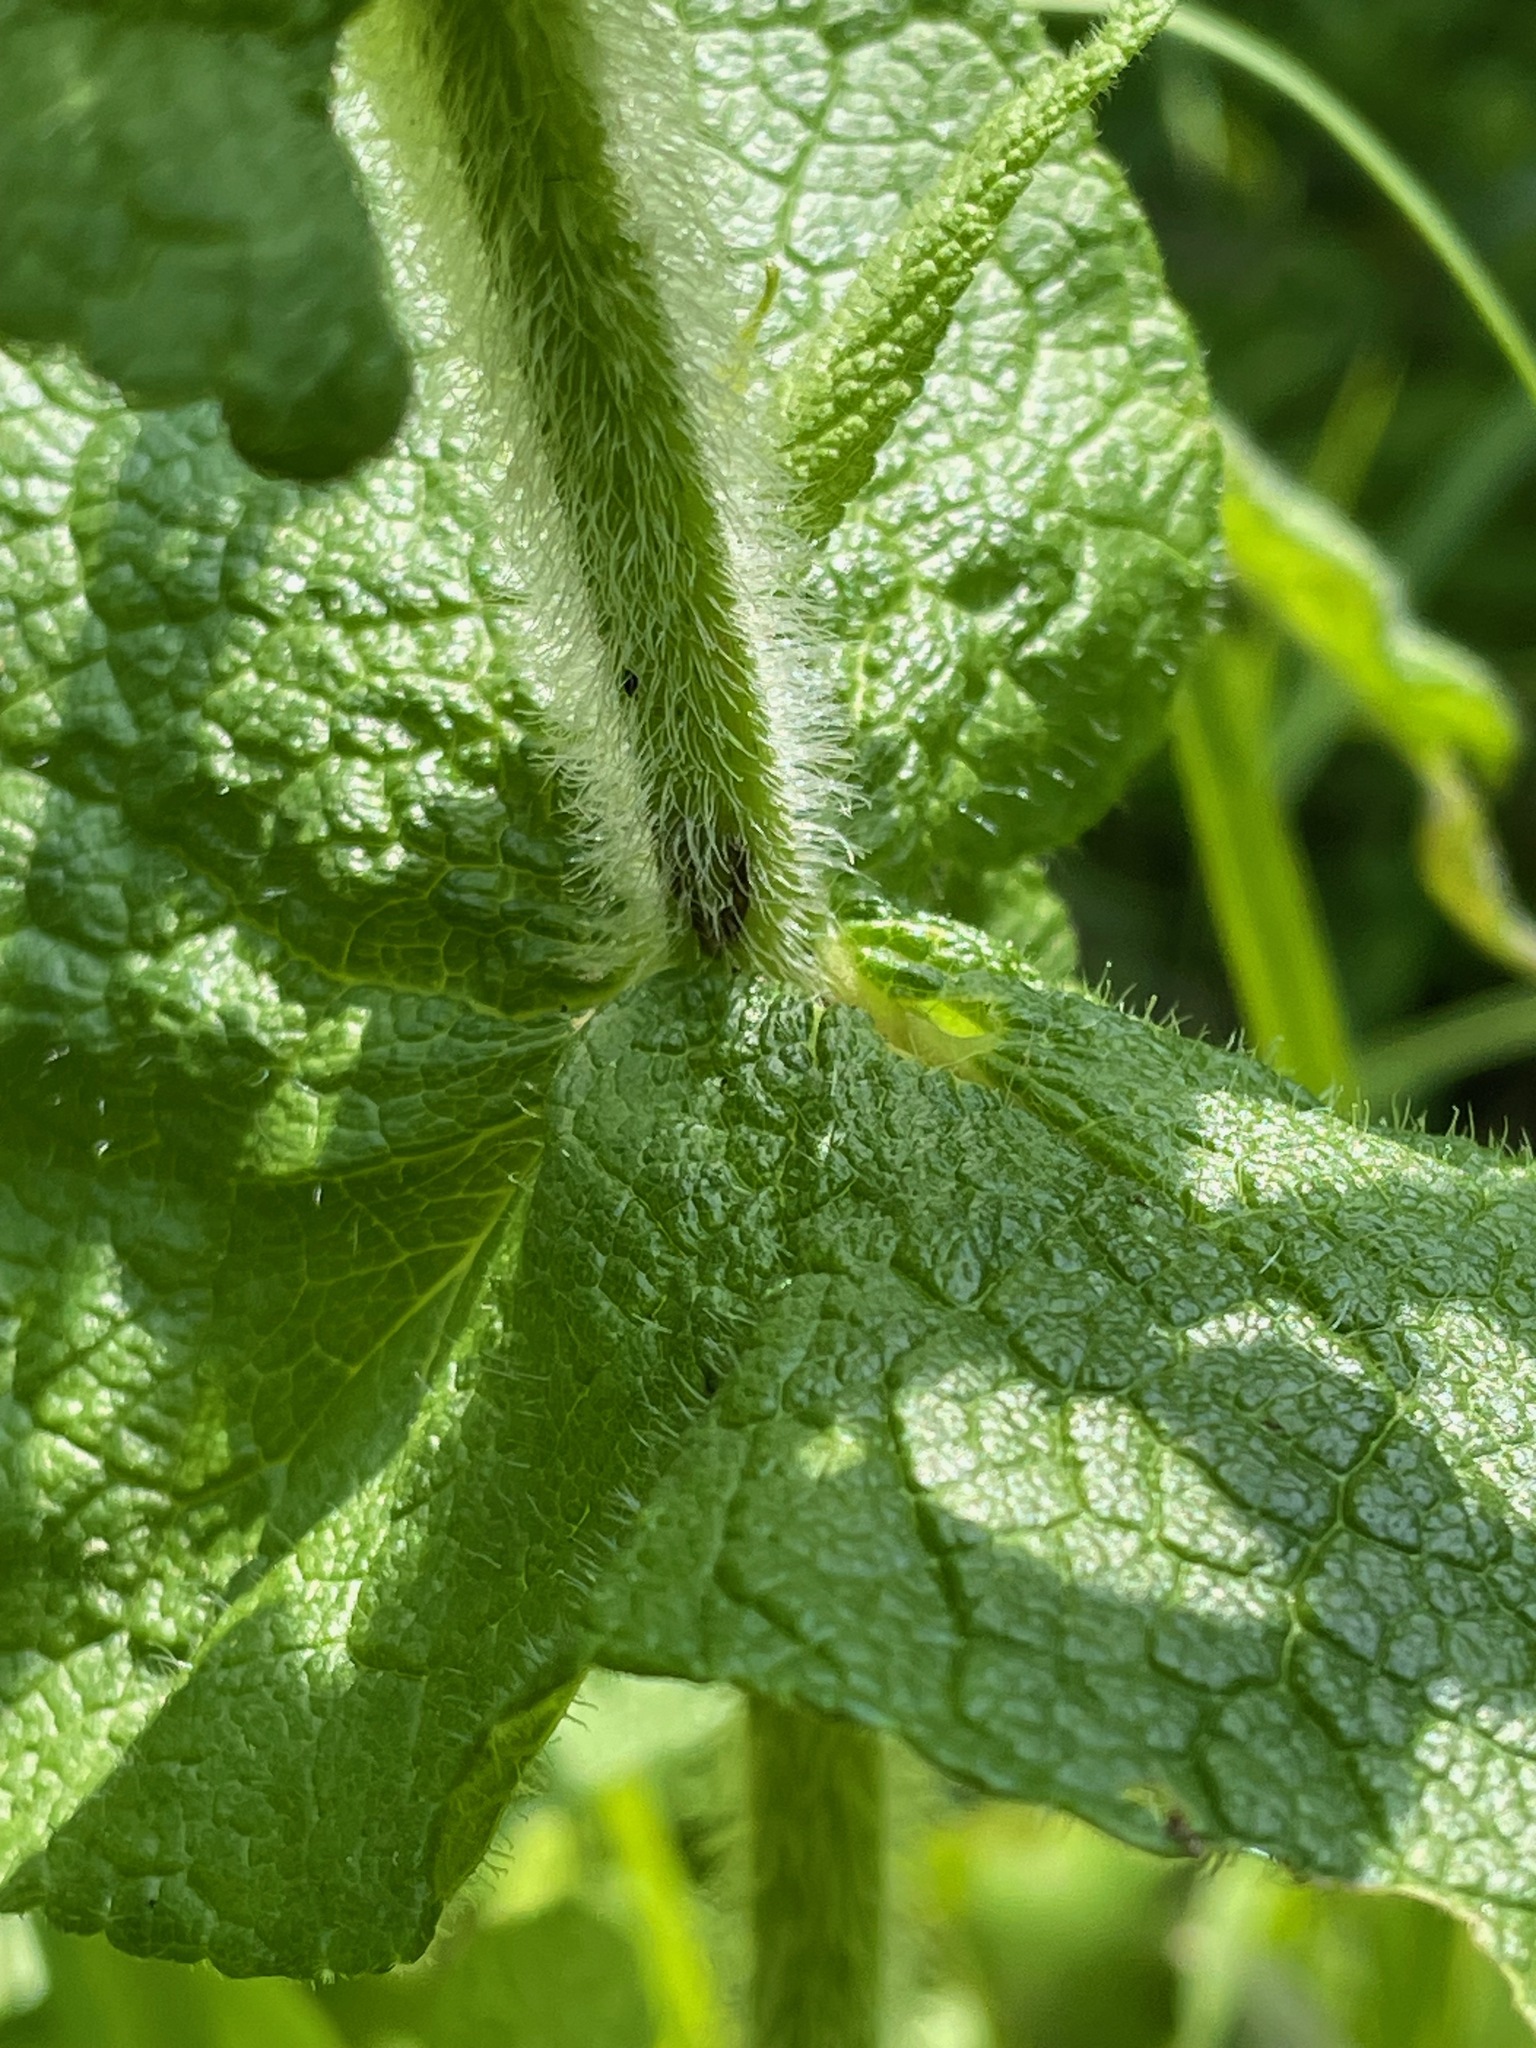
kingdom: Plantae
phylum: Tracheophyta
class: Magnoliopsida
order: Asterales
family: Asteraceae
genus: Eupatorium
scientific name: Eupatorium perfoliatum
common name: Boneset
